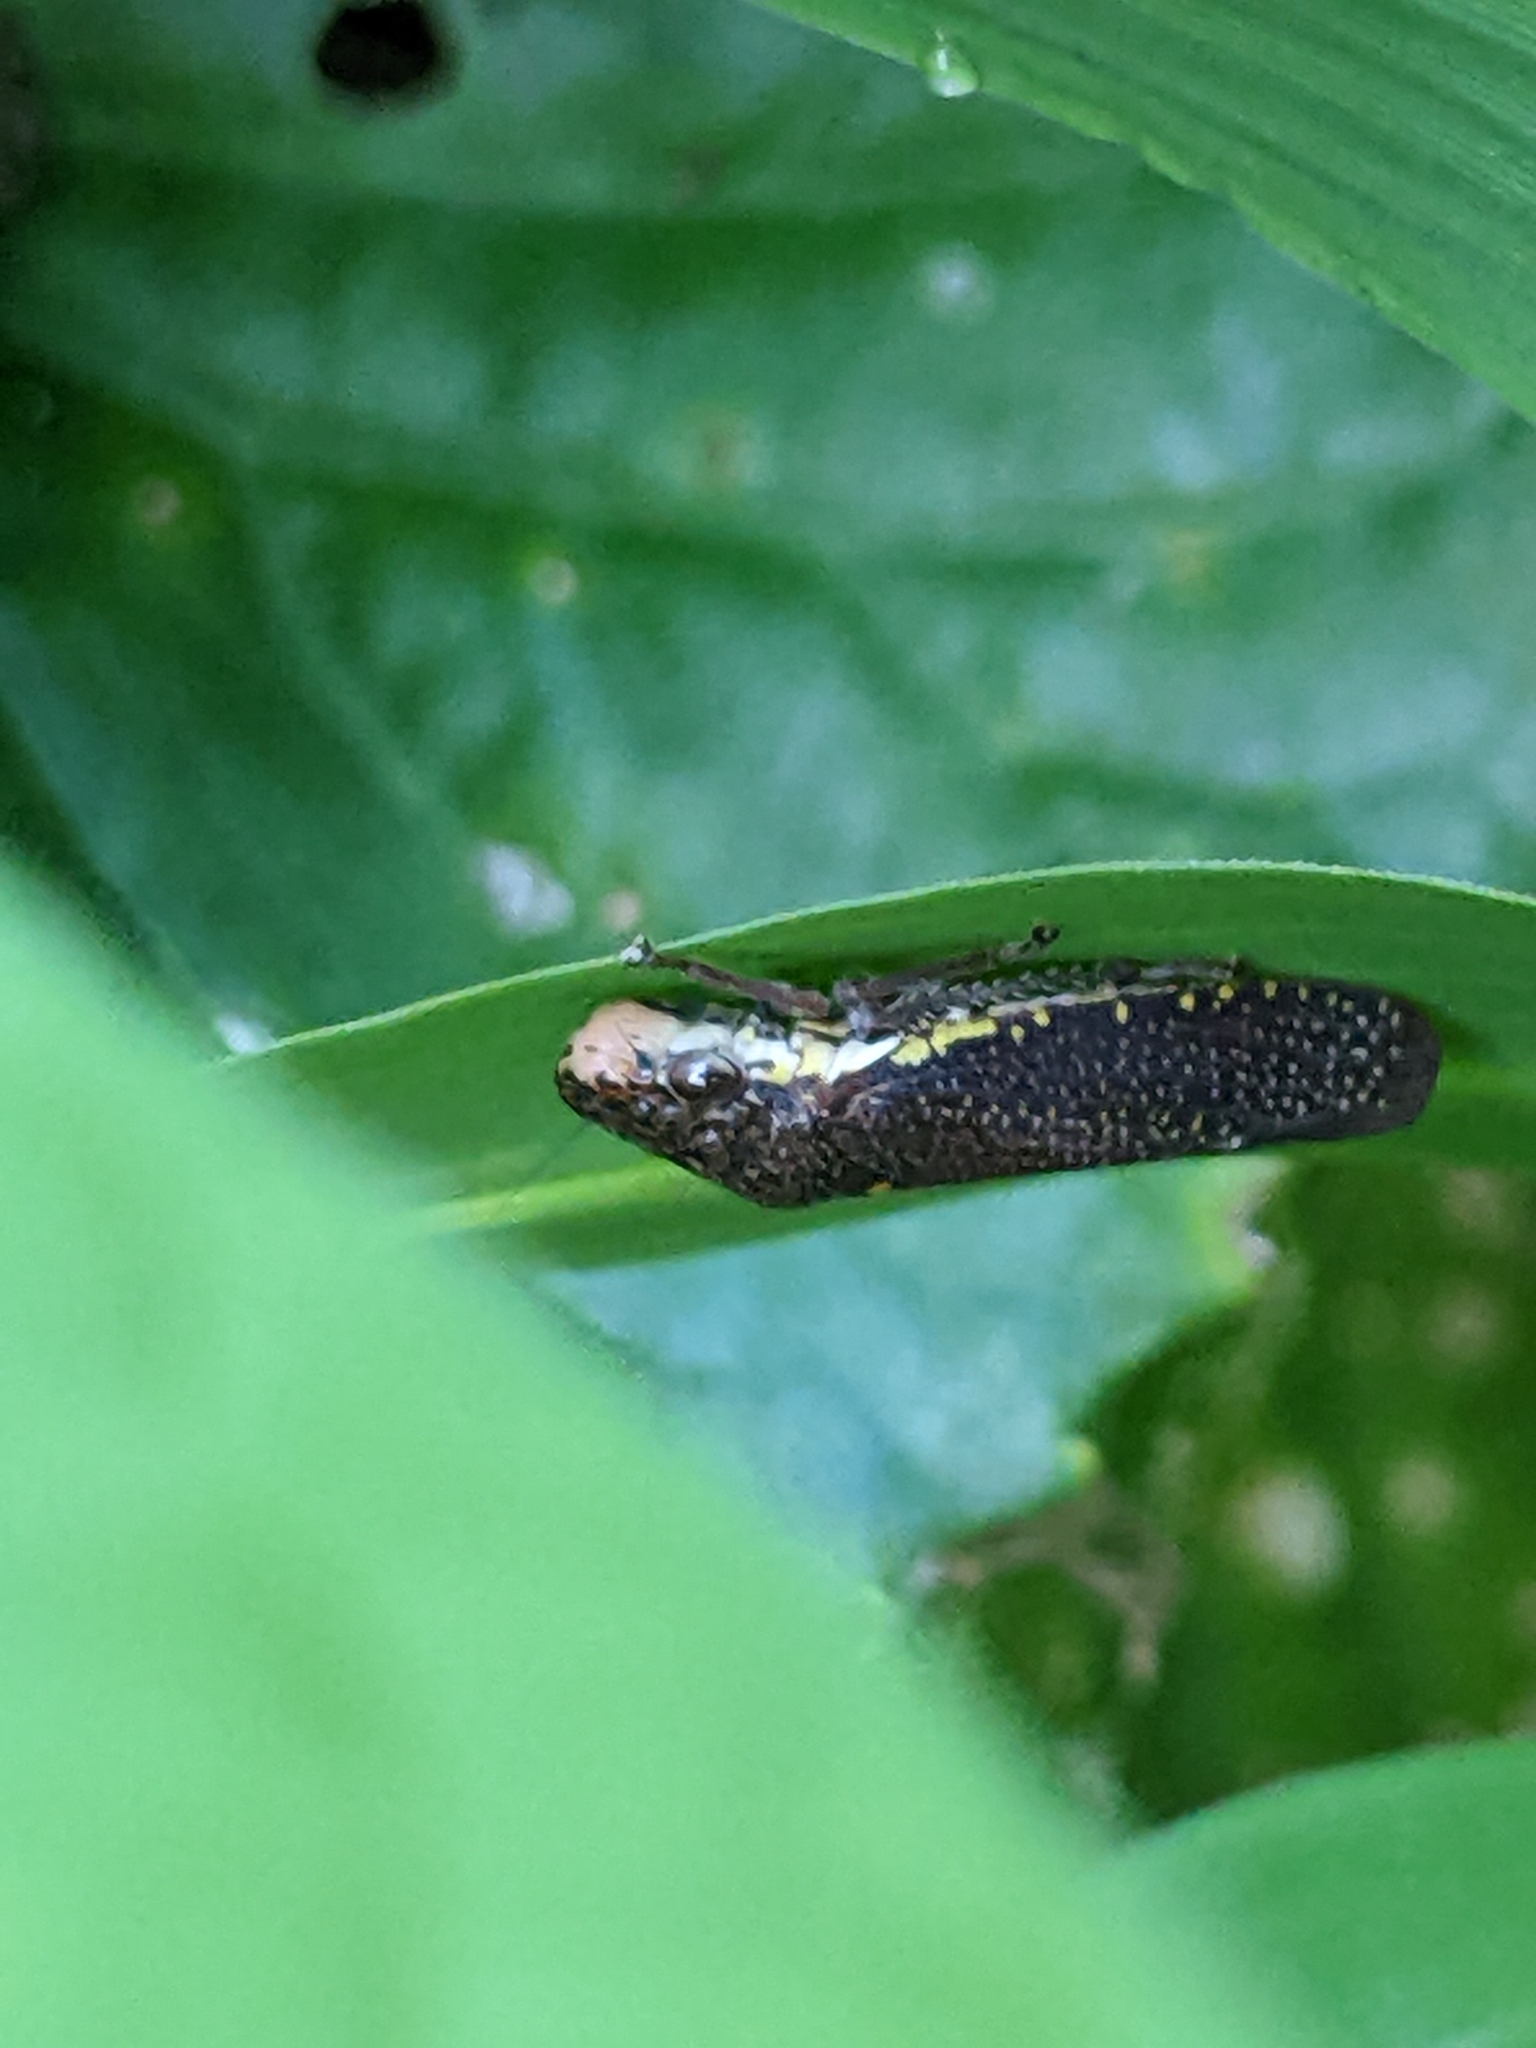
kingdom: Animalia
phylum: Arthropoda
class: Insecta
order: Hemiptera
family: Cicadellidae
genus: Paraulacizes
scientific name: Paraulacizes irrorata
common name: Speckled sharpshooter
